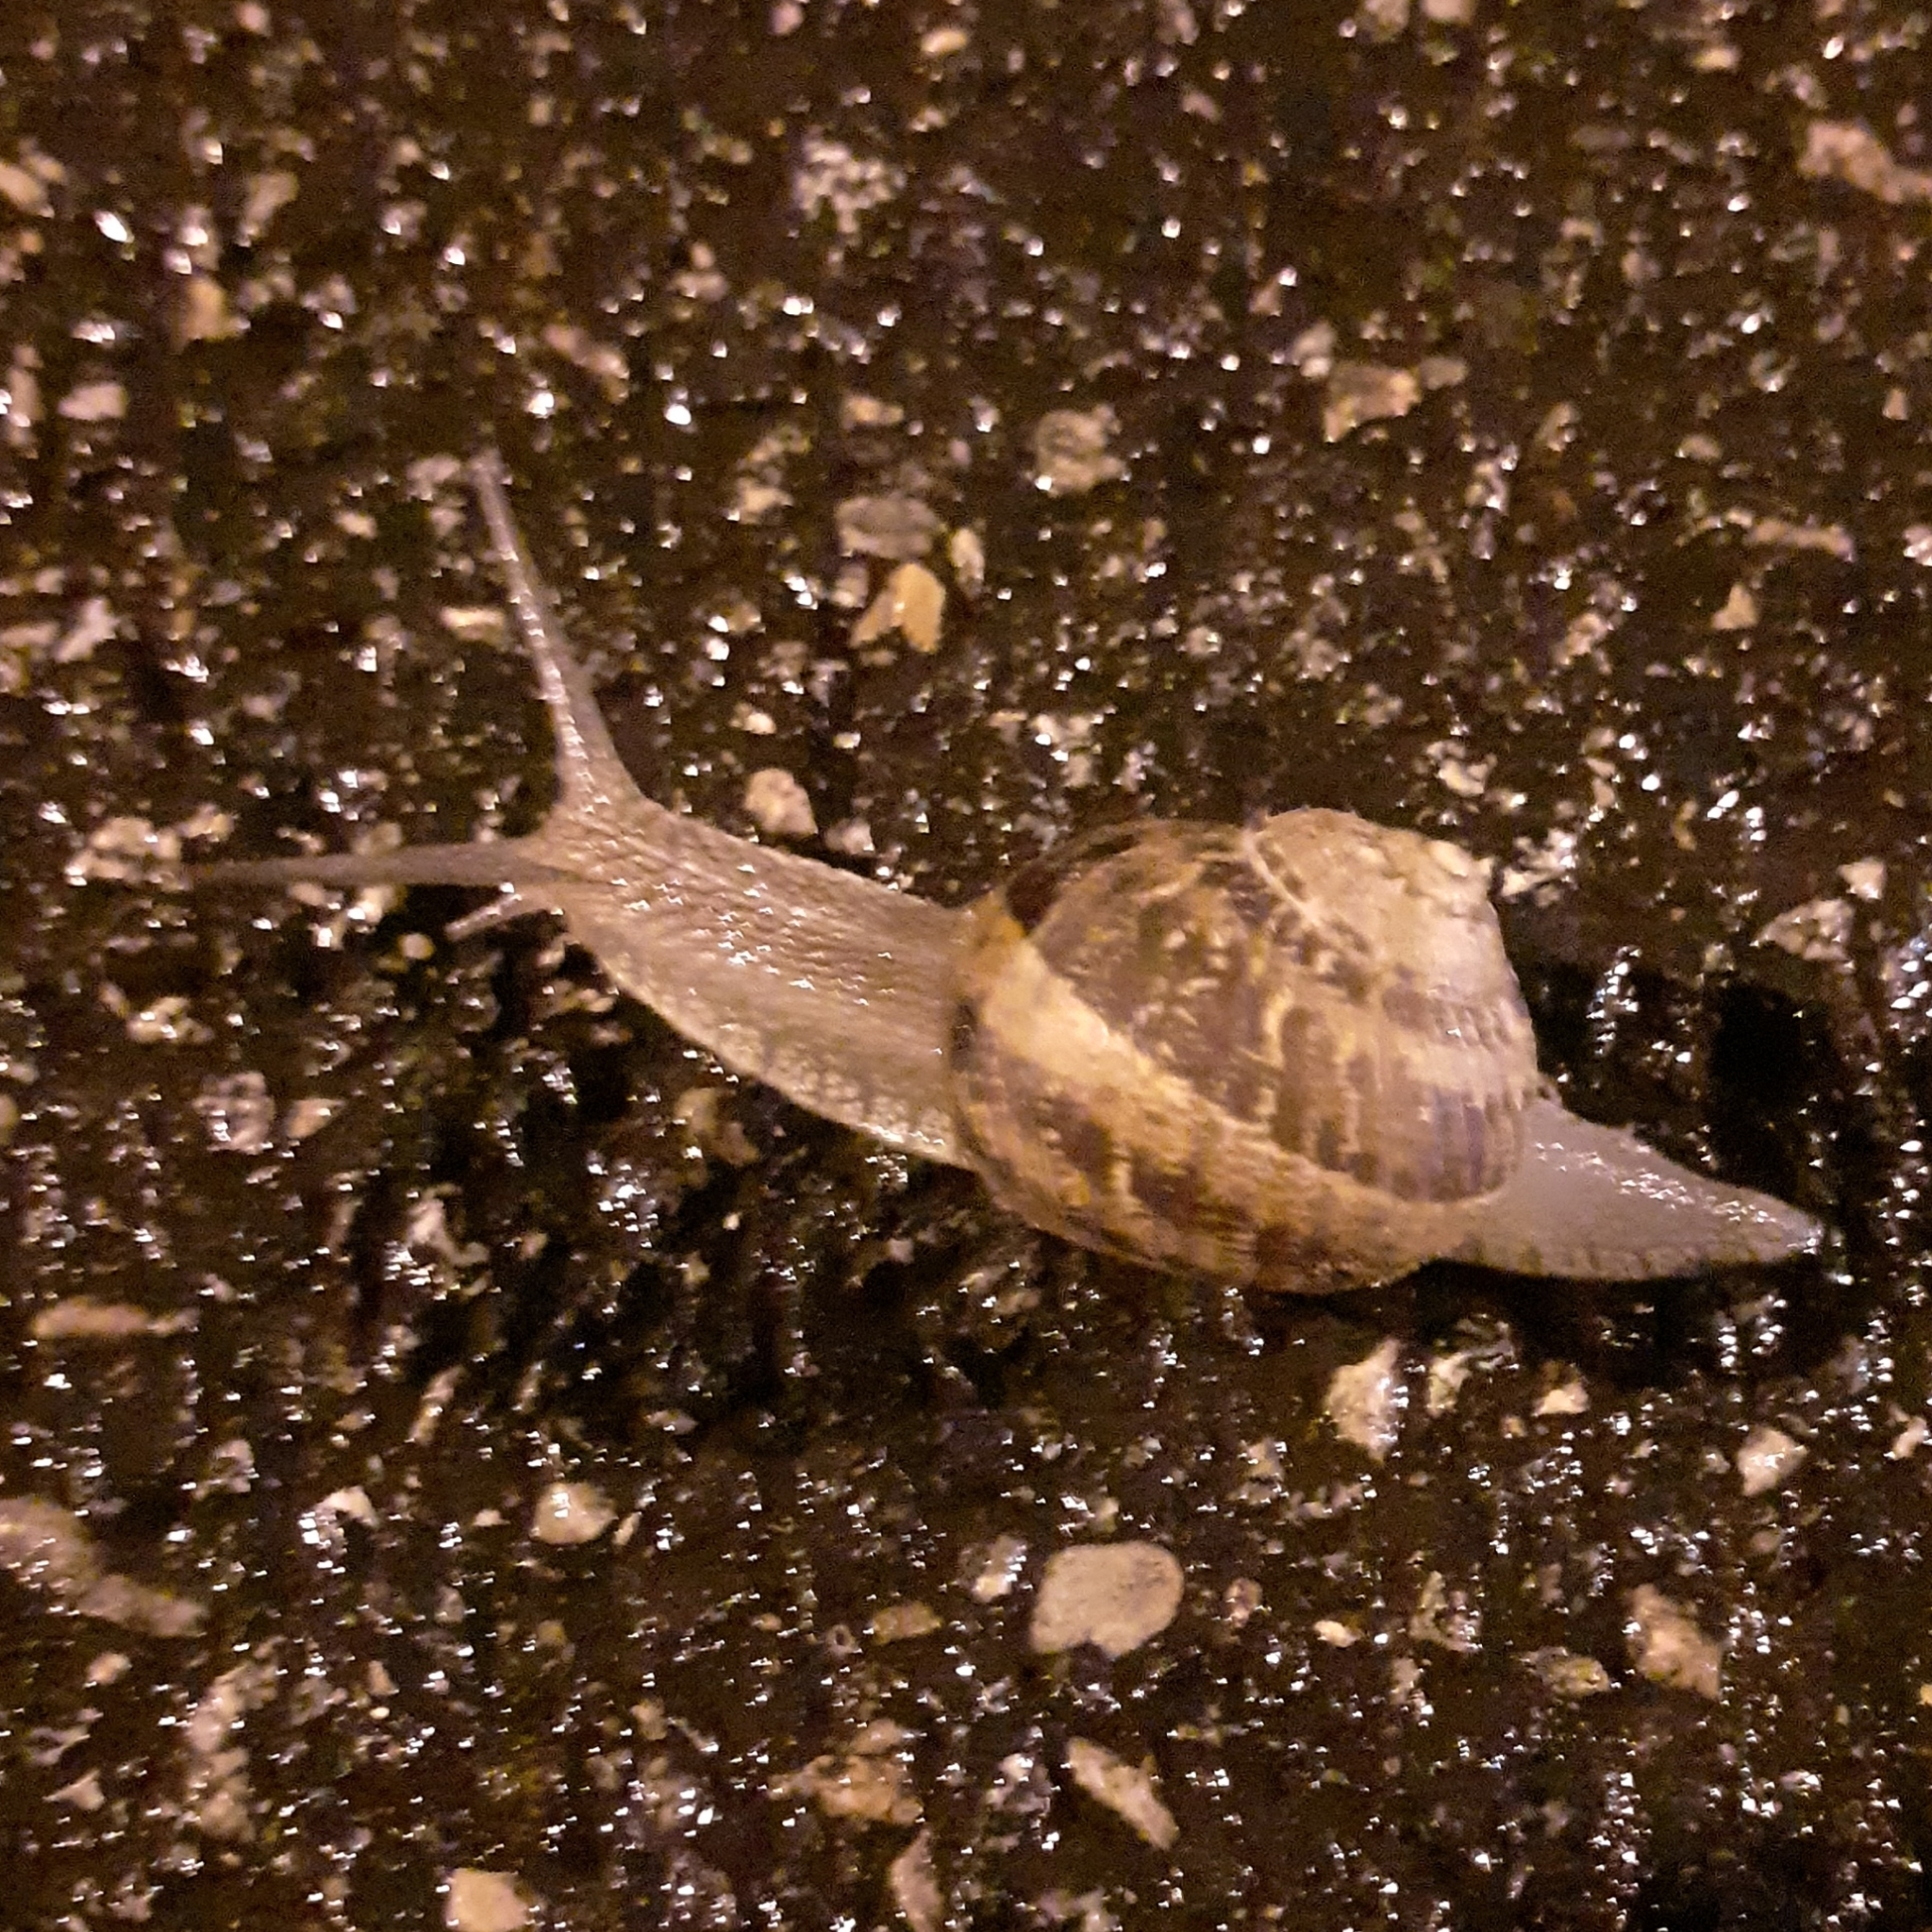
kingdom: Animalia
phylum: Mollusca
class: Gastropoda
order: Stylommatophora
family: Helicidae
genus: Cornu
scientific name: Cornu aspersum
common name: Brown garden snail
